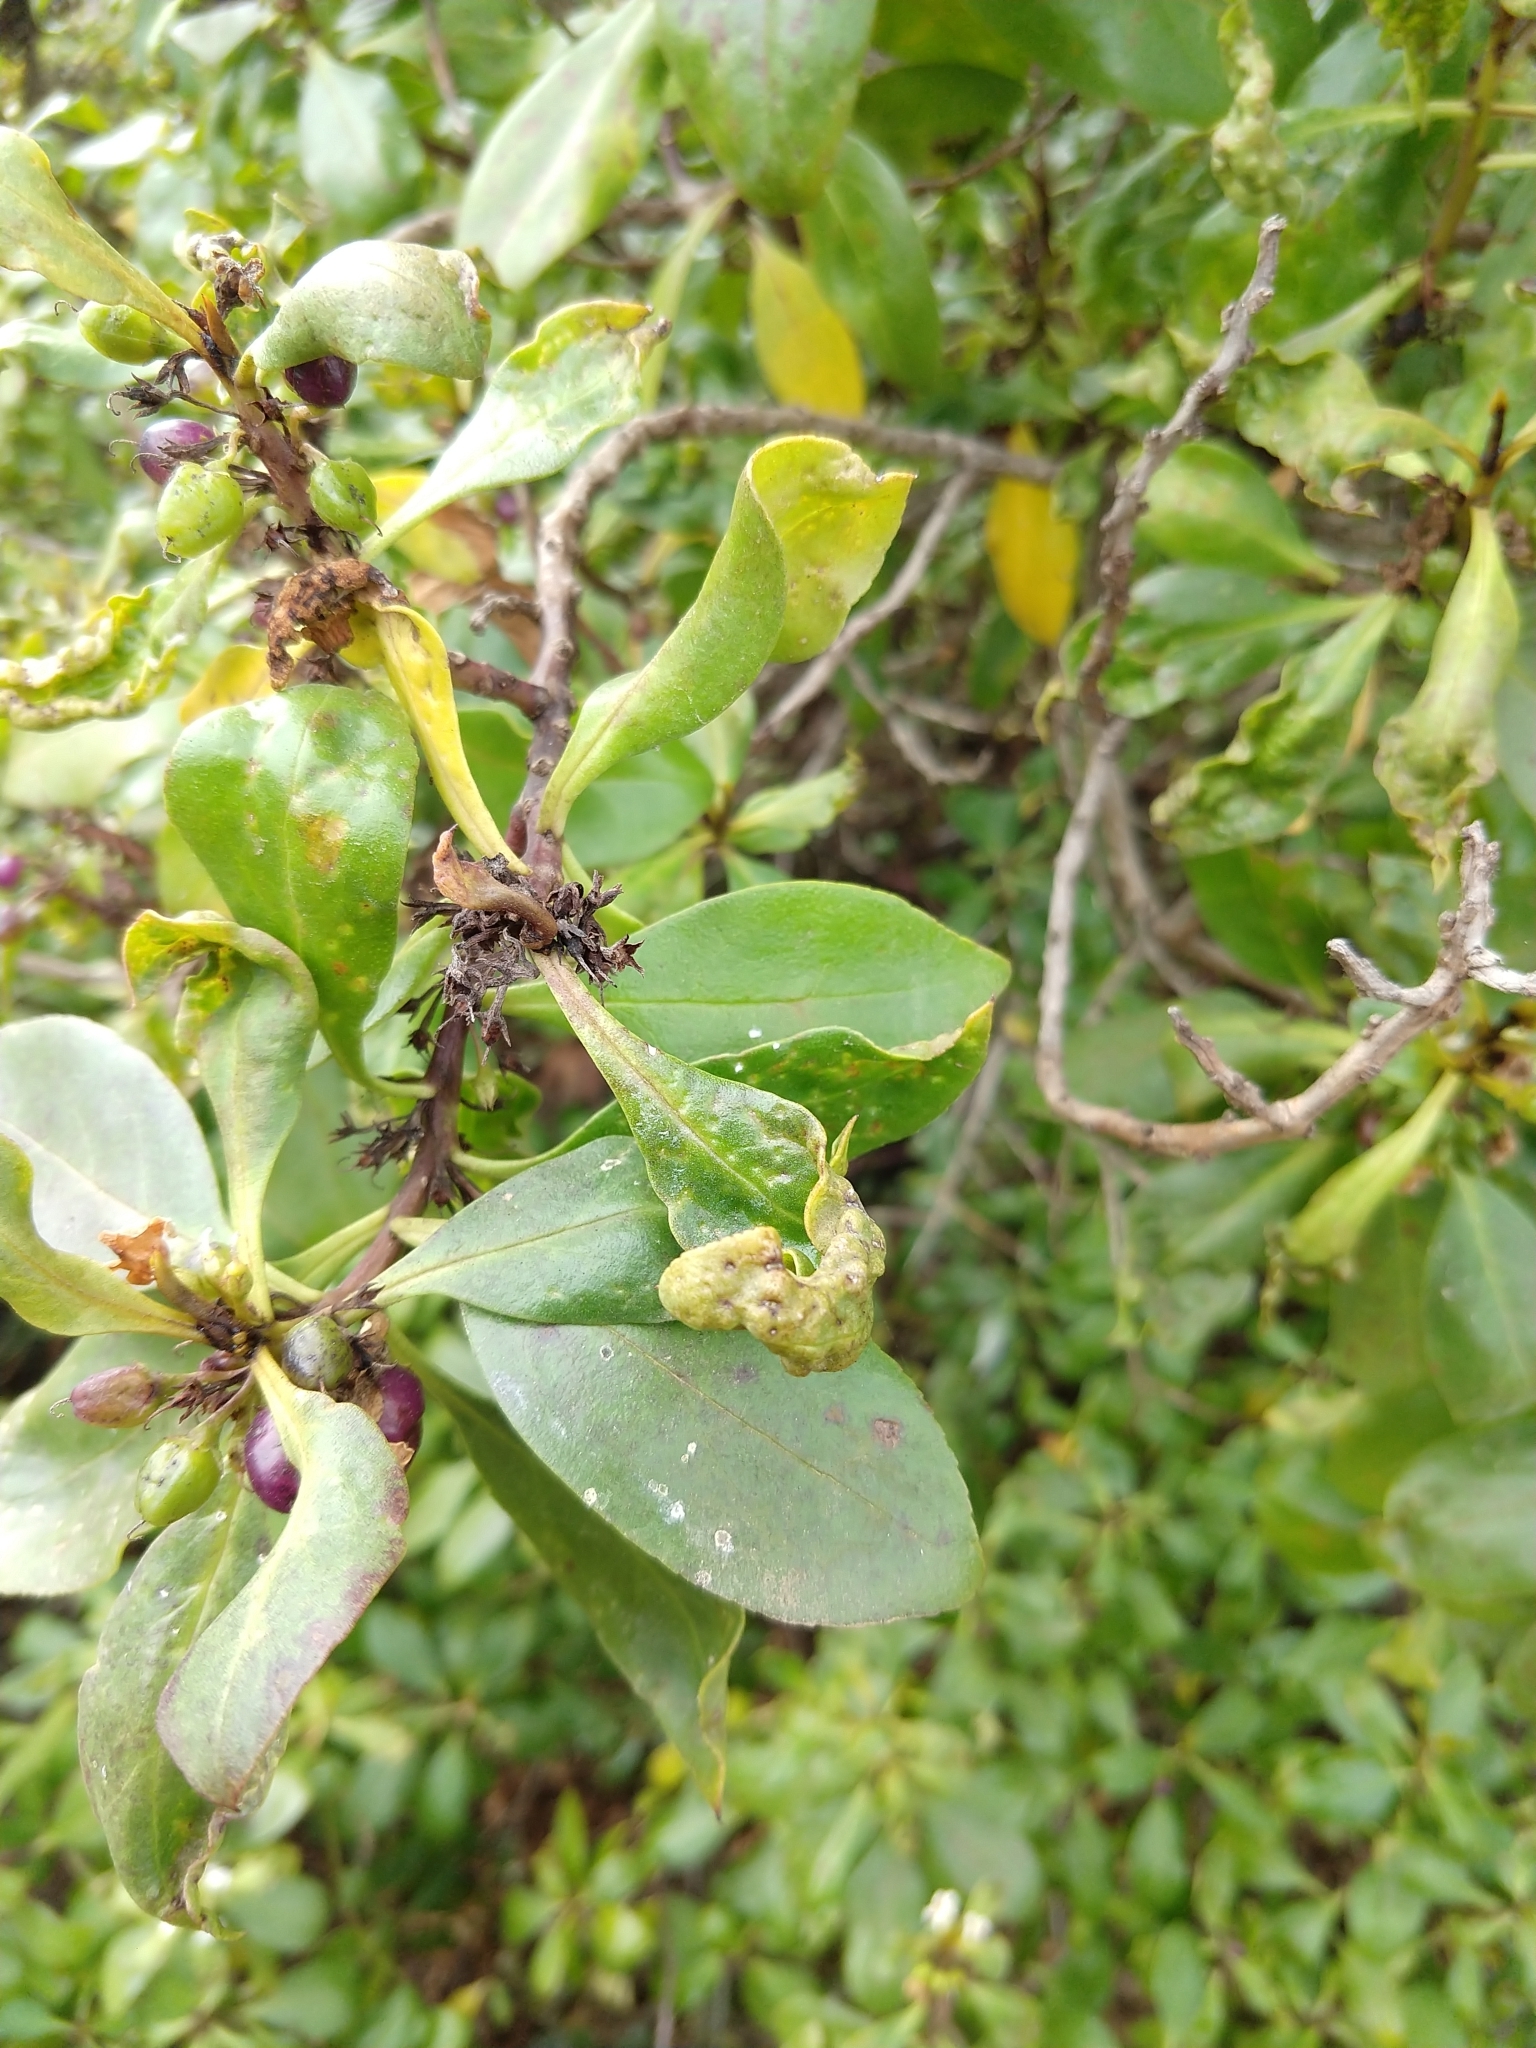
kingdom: Animalia
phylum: Arthropoda
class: Insecta
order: Thysanoptera
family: Phlaeothripidae
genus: Klambothrips
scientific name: Klambothrips myopori
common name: Myoporum thrips
